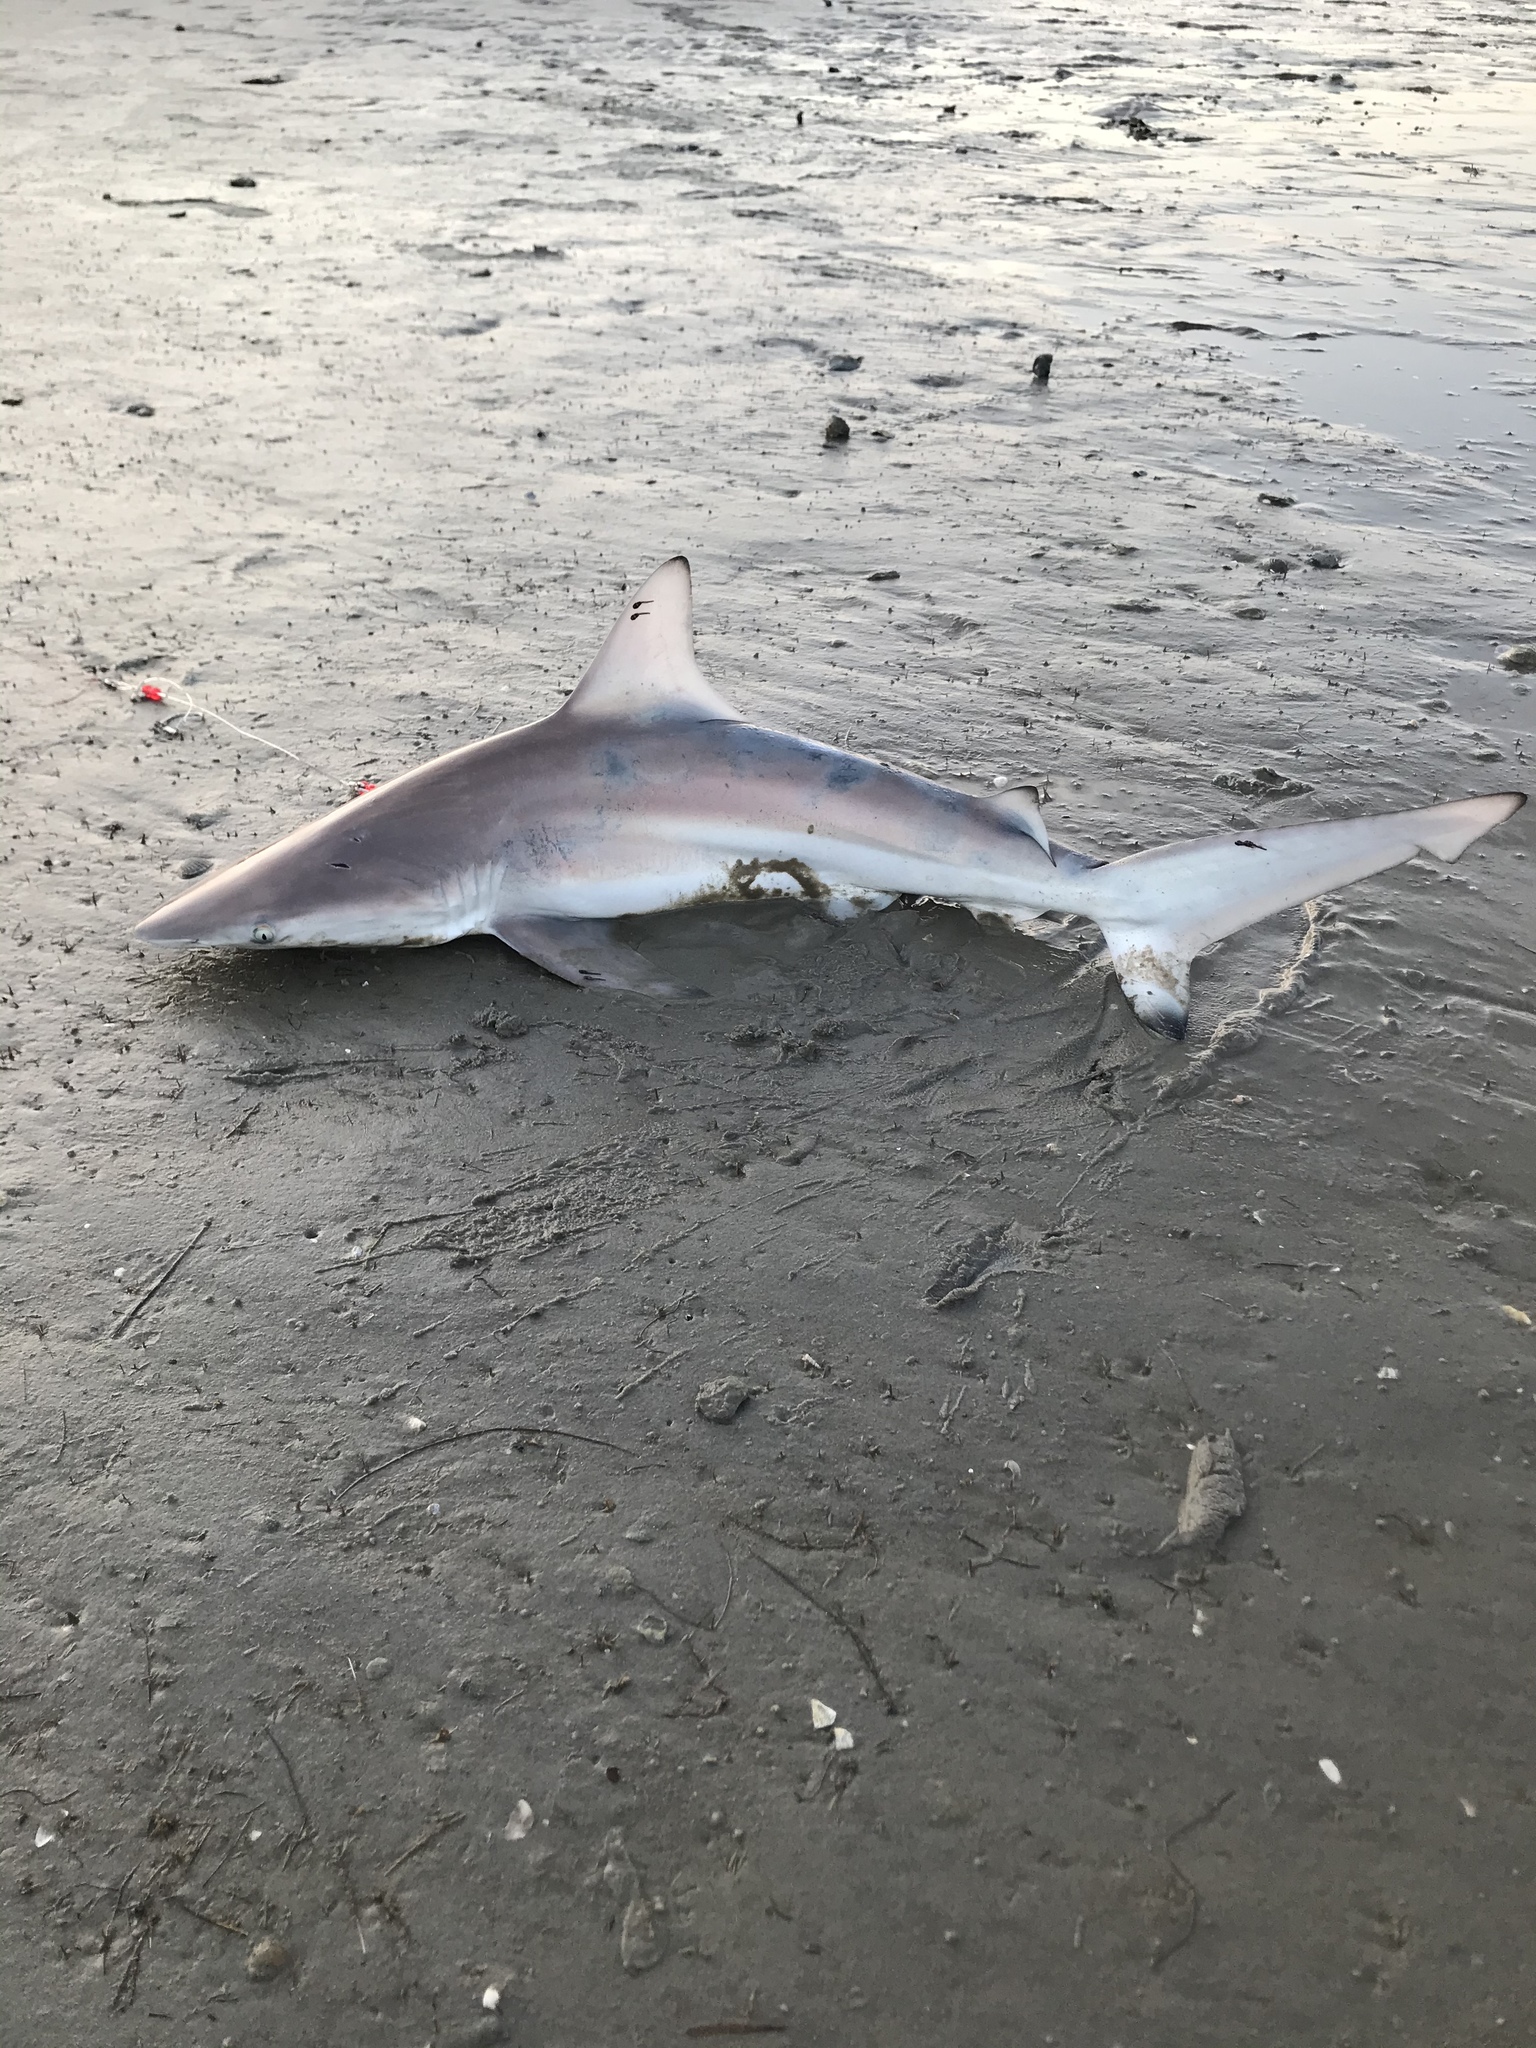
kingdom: Animalia
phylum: Chordata
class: Elasmobranchii
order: Carcharhiniformes
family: Carcharhinidae
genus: Carcharhinus
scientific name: Carcharhinus limbatus
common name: Blacktip shark
